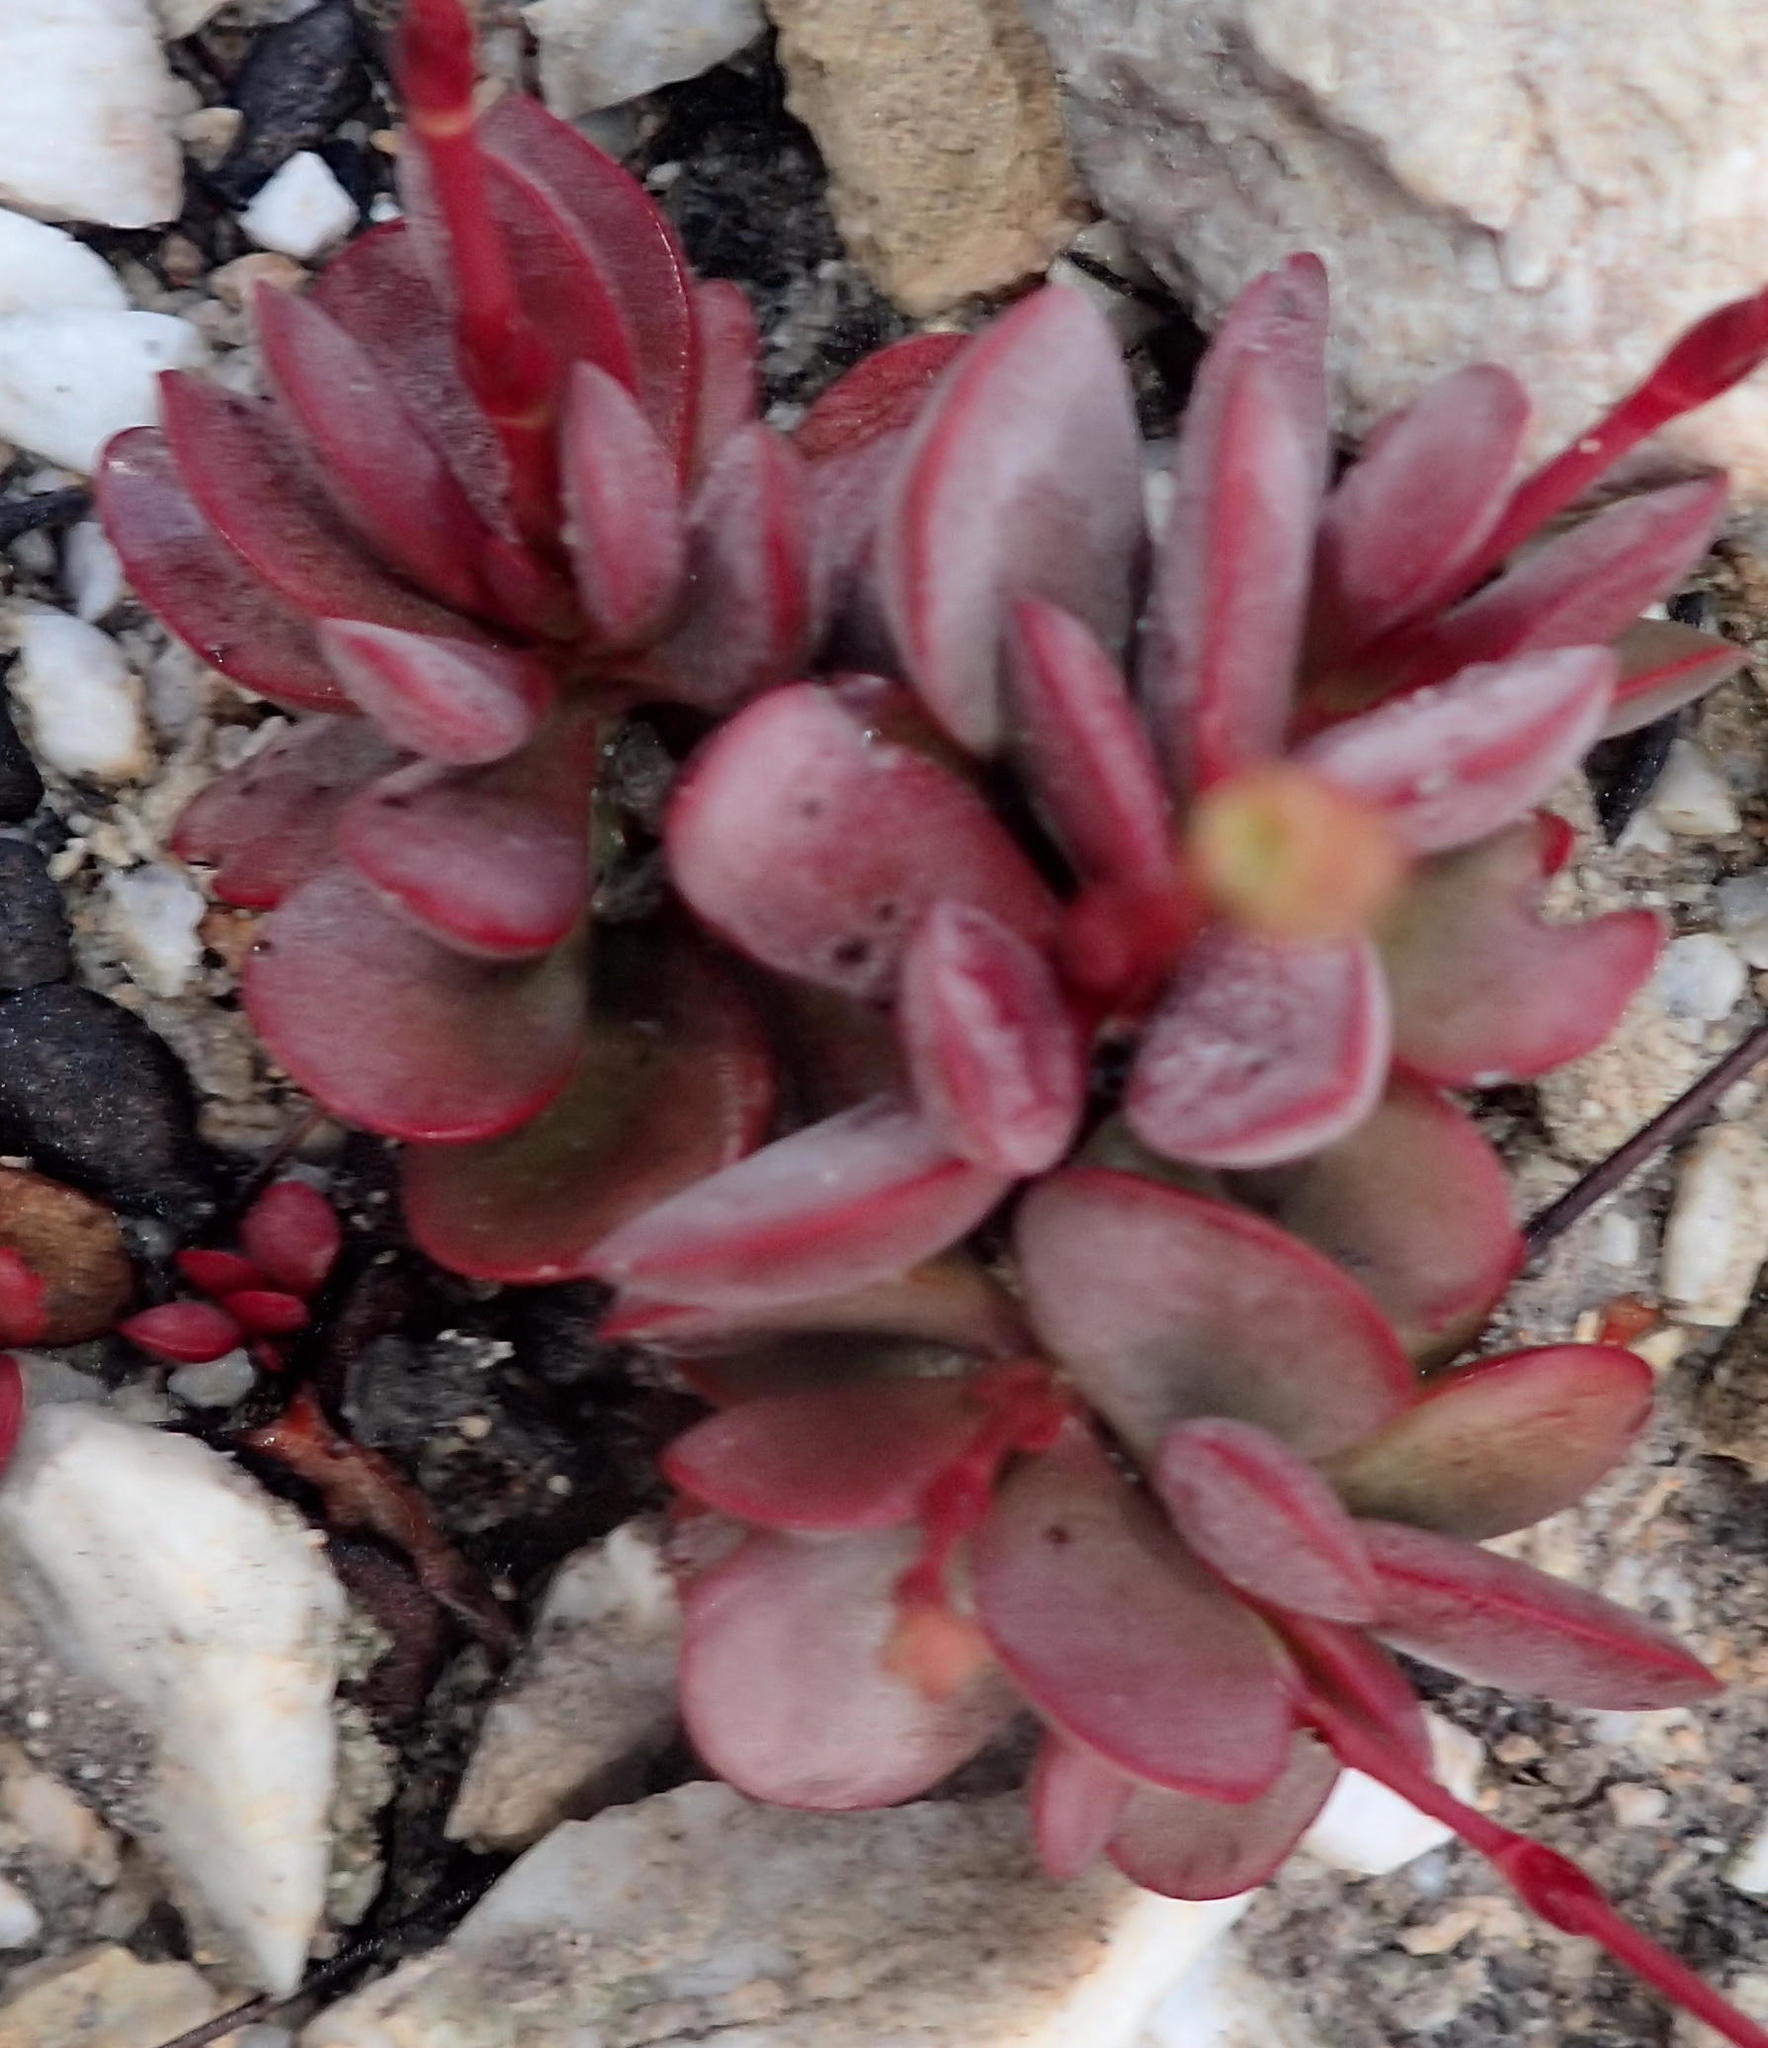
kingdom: Plantae
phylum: Tracheophyta
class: Magnoliopsida
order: Saxifragales
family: Crassulaceae
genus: Crassula
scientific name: Crassula atropurpurea
